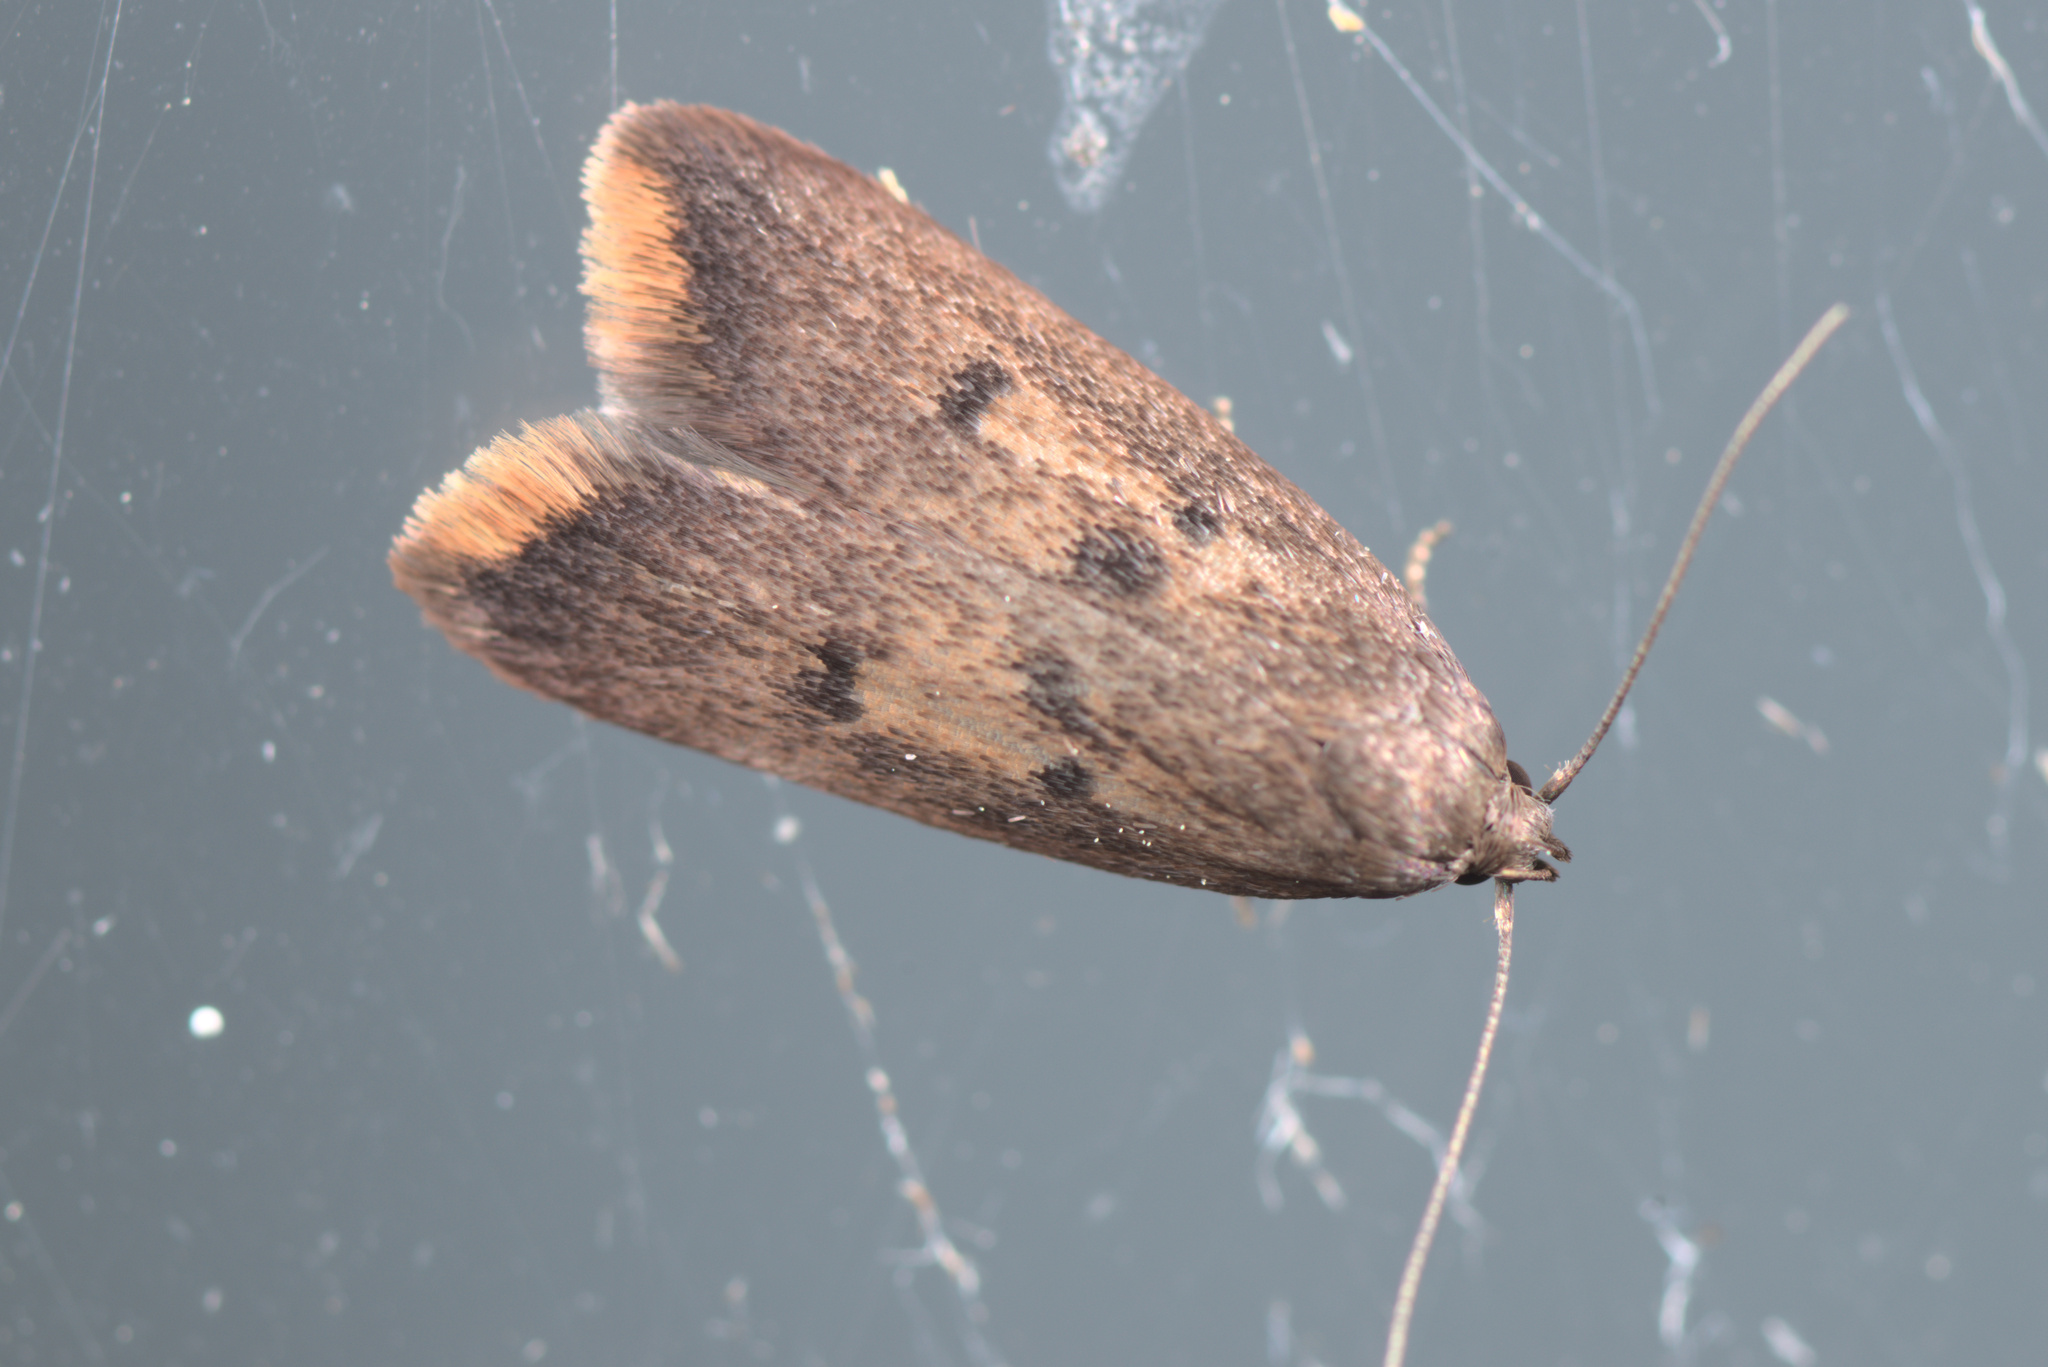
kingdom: Animalia
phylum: Arthropoda
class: Insecta
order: Lepidoptera
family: Oecophoridae
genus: Tachystola
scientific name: Tachystola acroxantha
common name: Ruddy streak
